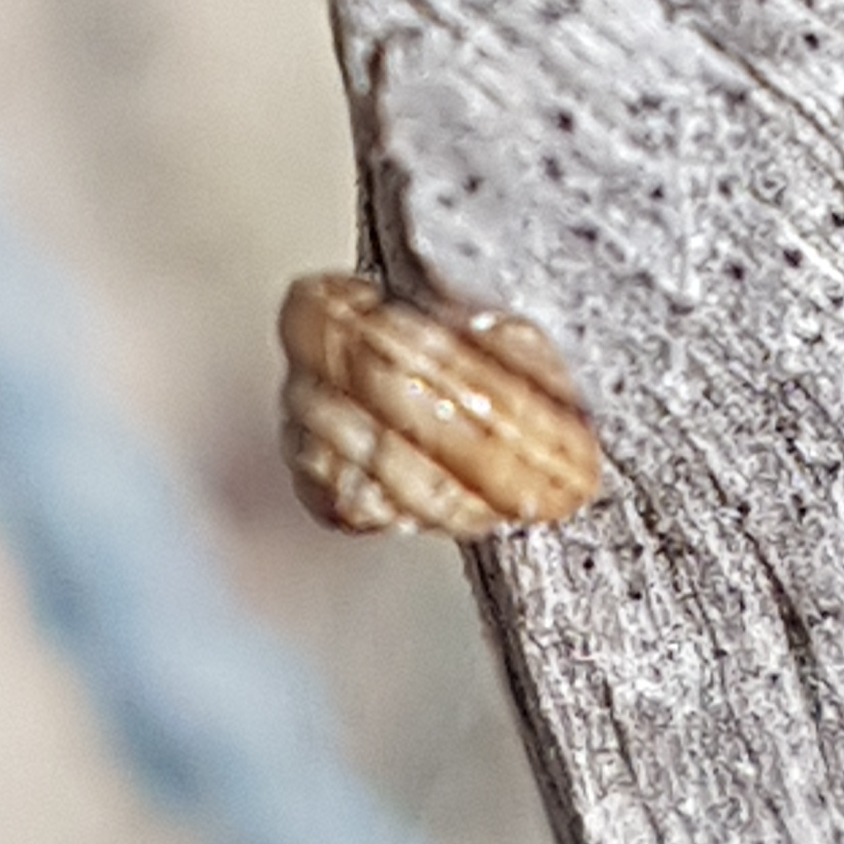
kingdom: Animalia
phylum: Mollusca
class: Gastropoda
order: Stylommatophora
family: Geomitridae
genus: Trochoidea
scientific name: Trochoidea trochoides
